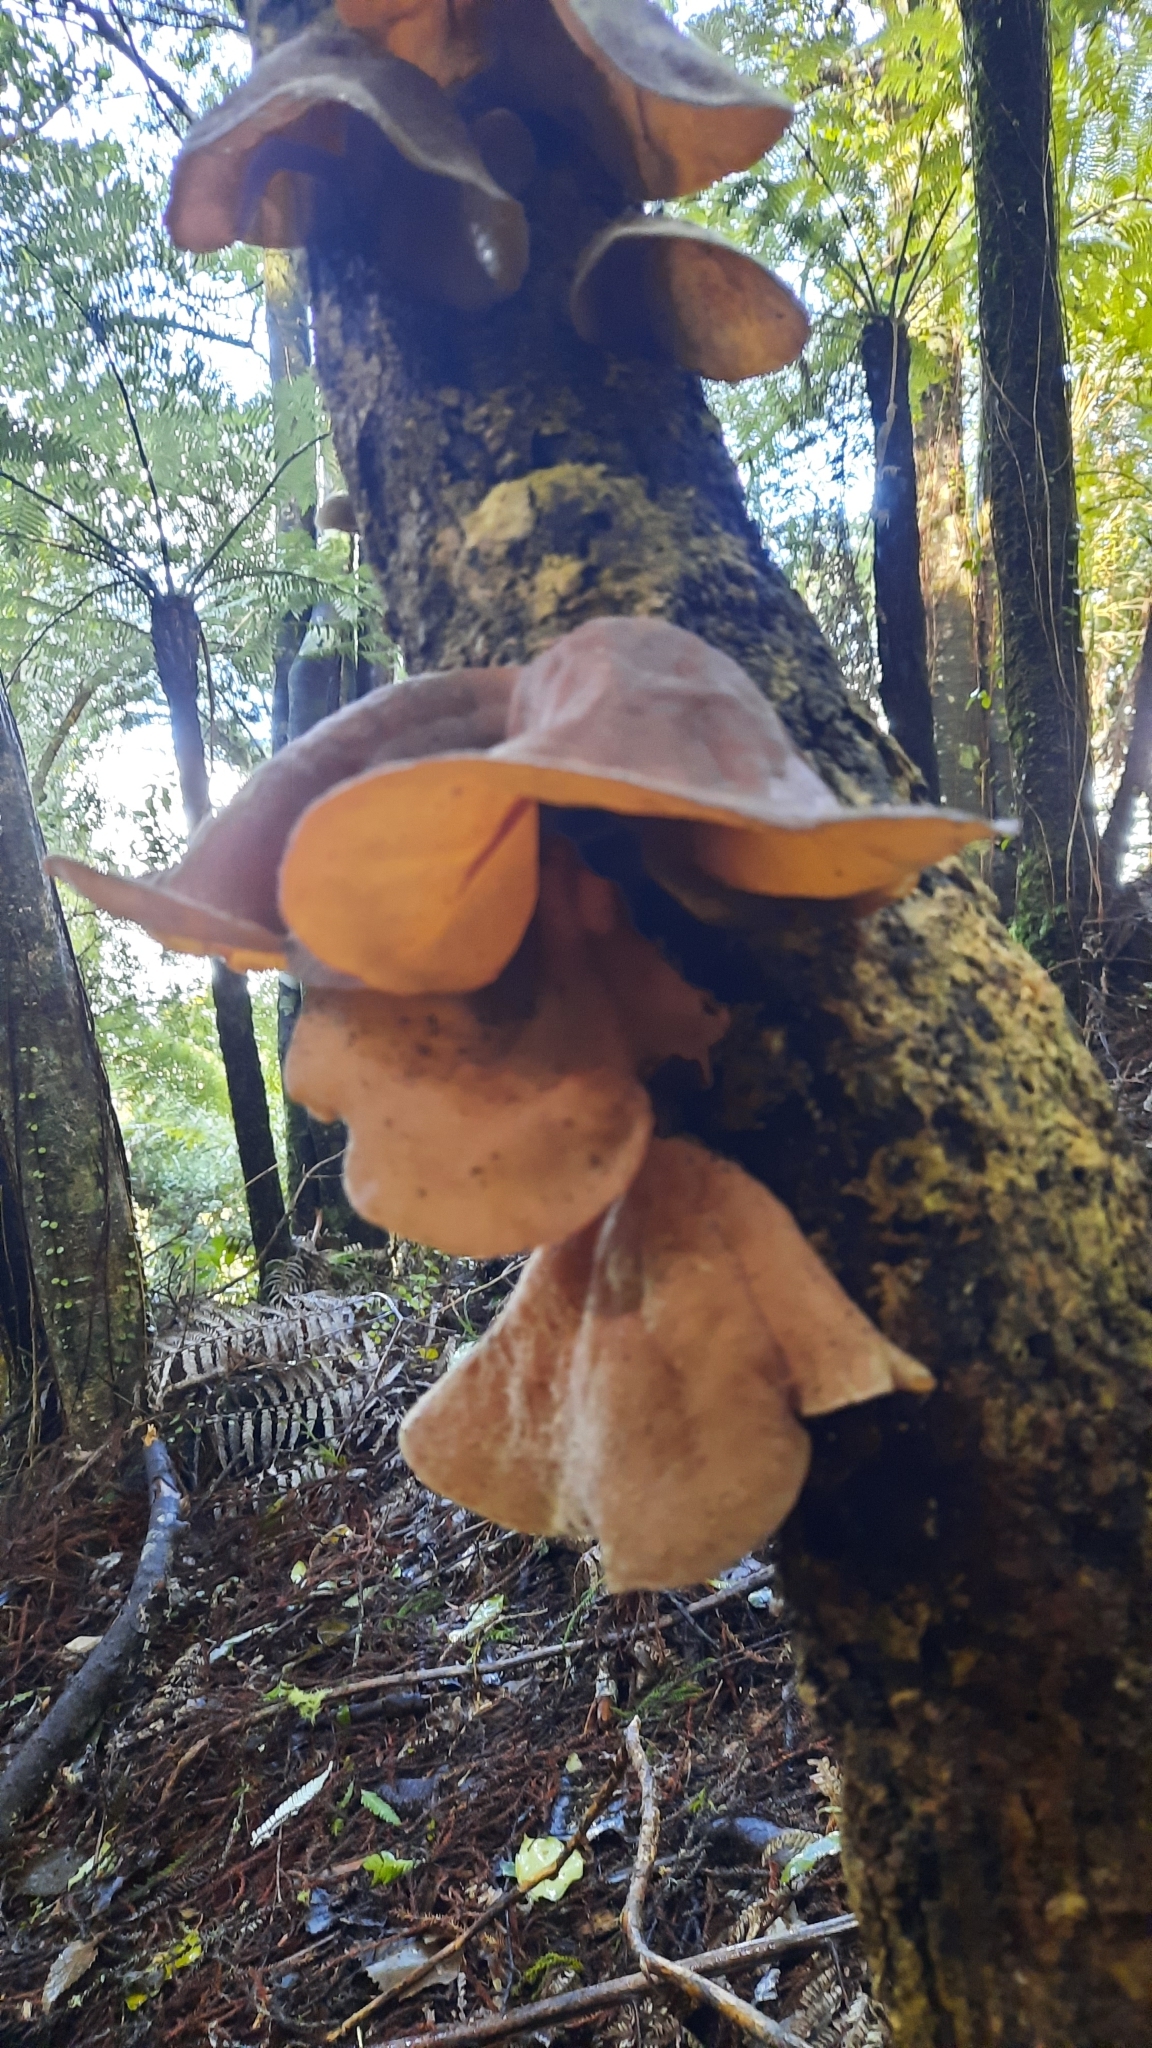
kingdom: Fungi
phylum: Basidiomycota
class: Agaricomycetes
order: Auriculariales
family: Auriculariaceae
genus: Auricularia
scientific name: Auricularia cornea
